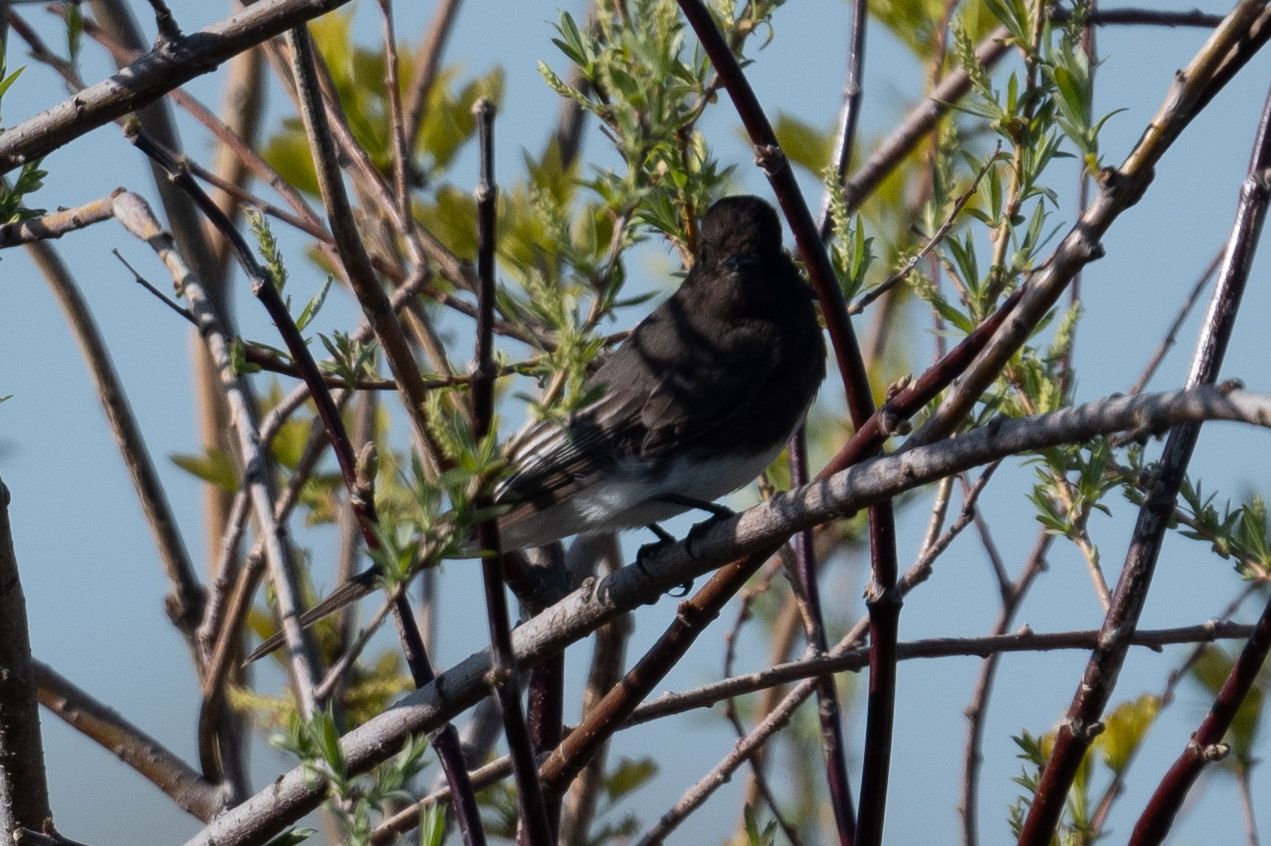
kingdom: Animalia
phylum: Chordata
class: Aves
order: Passeriformes
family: Tyrannidae
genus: Sayornis
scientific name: Sayornis nigricans
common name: Black phoebe
